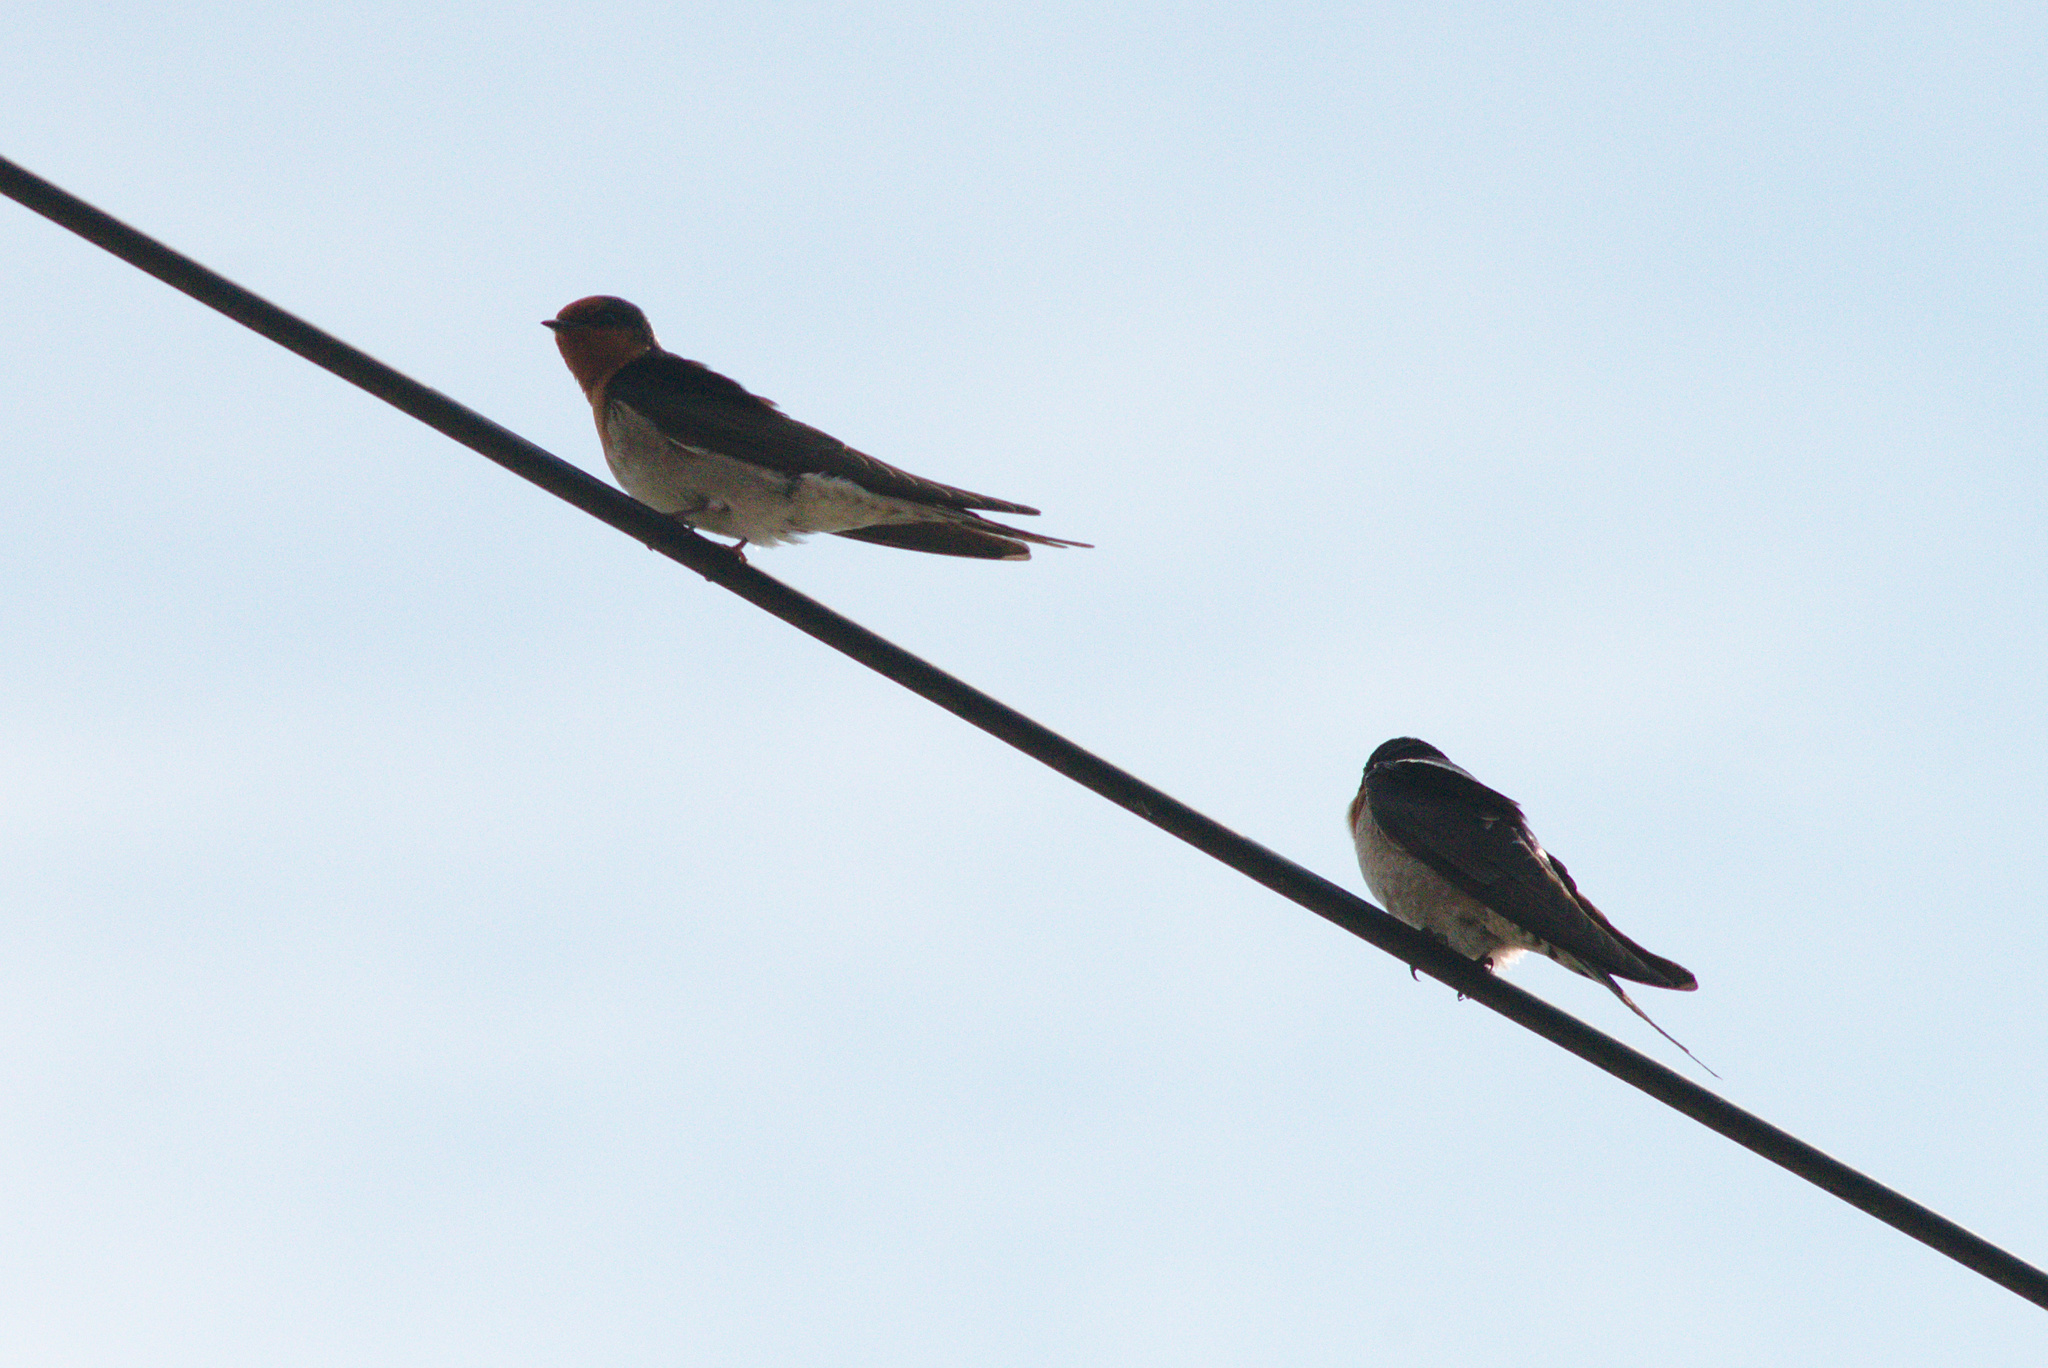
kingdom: Animalia
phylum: Chordata
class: Aves
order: Passeriformes
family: Hirundinidae
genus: Hirundo
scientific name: Hirundo neoxena
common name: Welcome swallow
